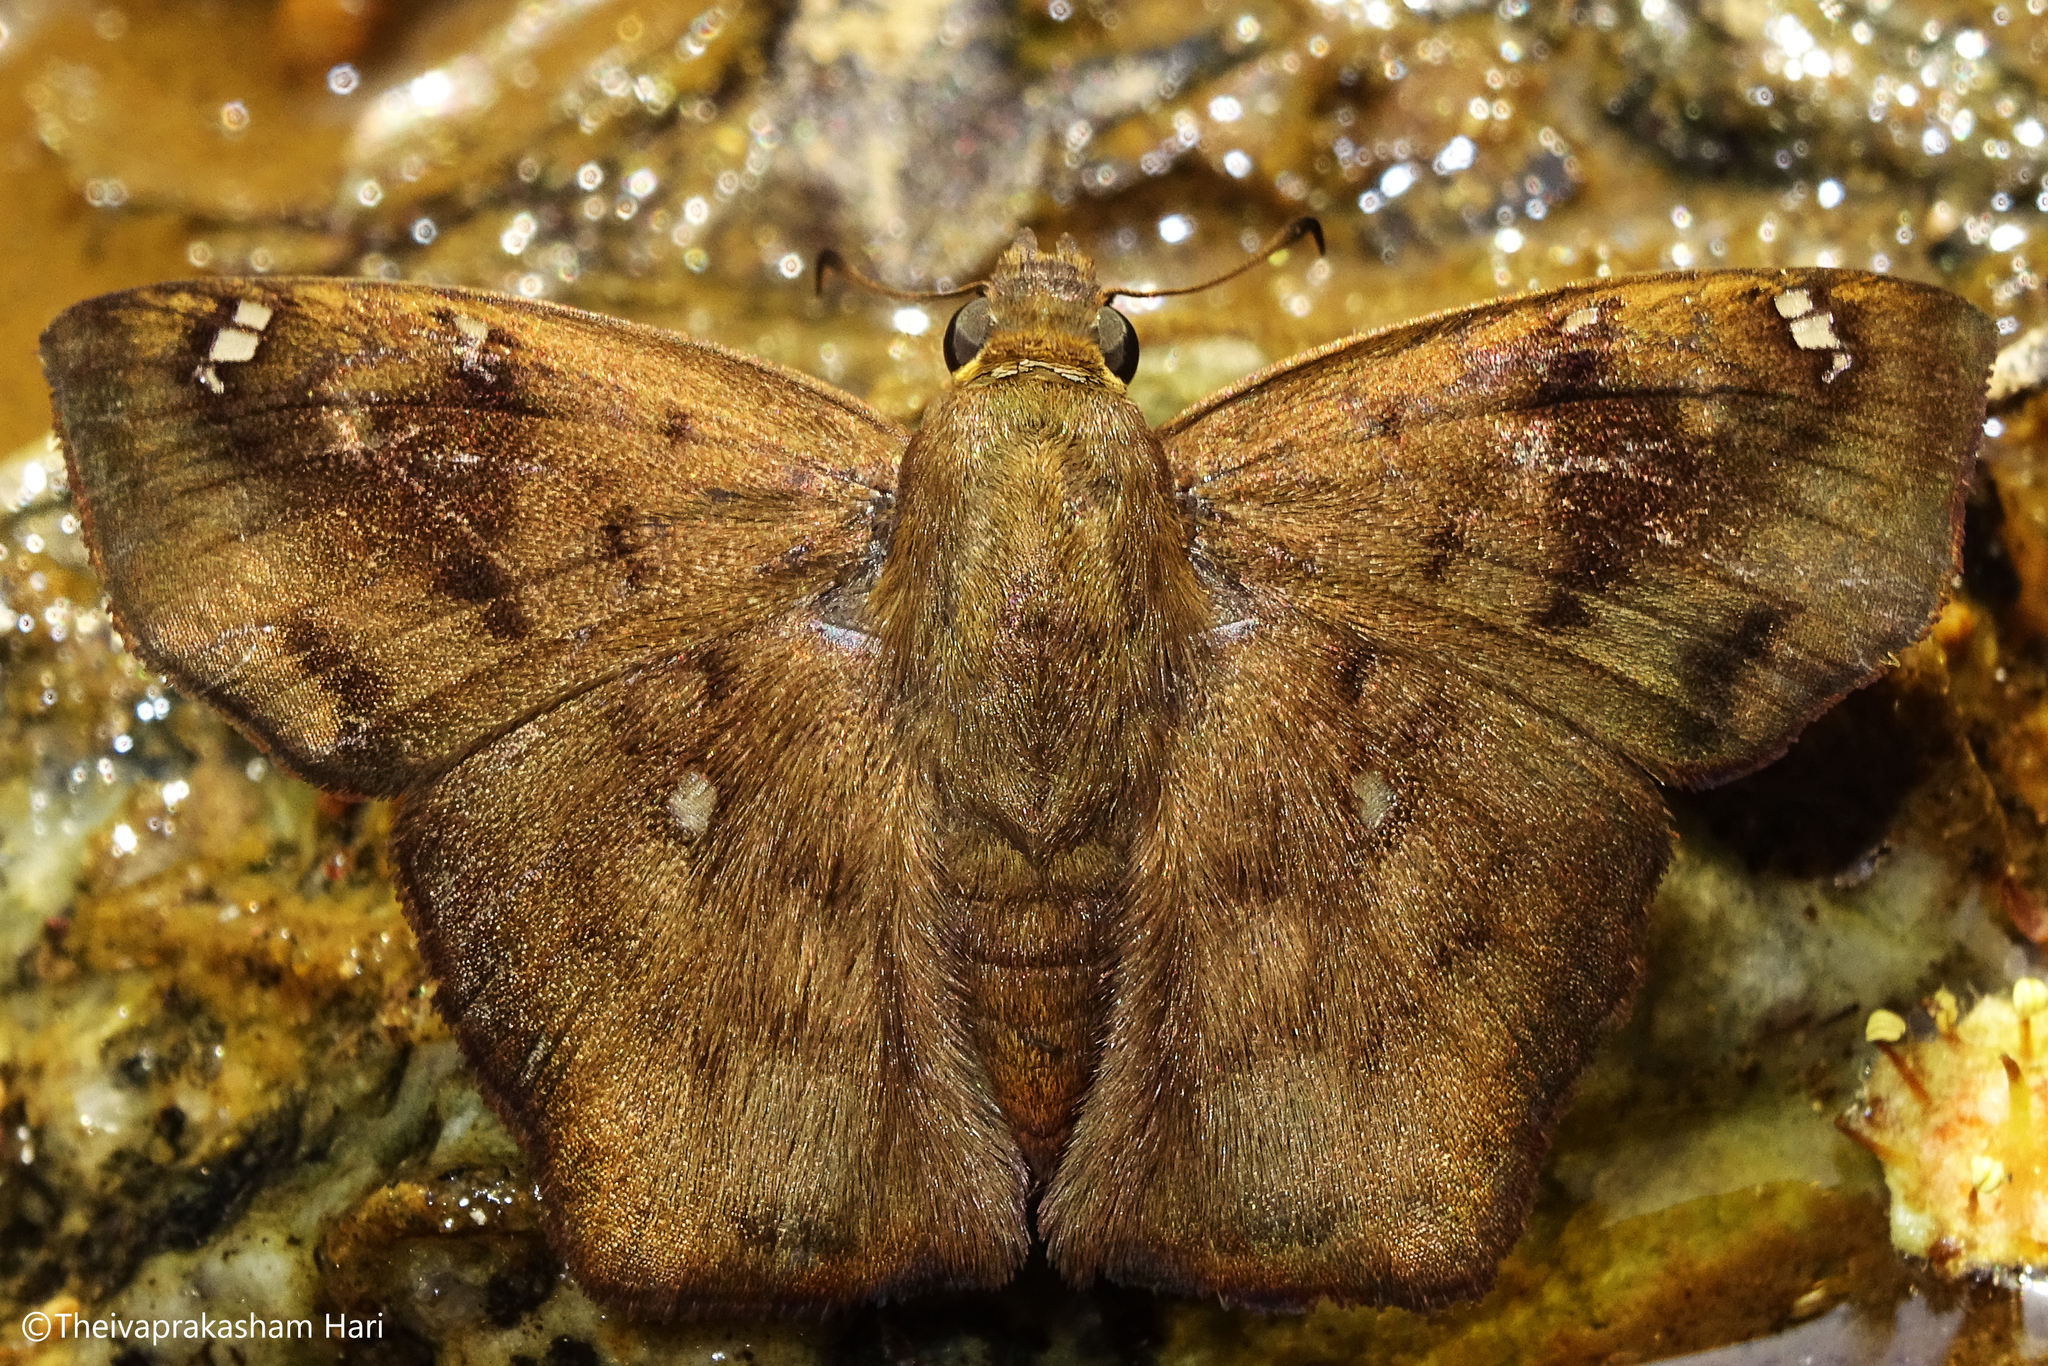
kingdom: Animalia
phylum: Arthropoda
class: Insecta
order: Lepidoptera
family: Hesperiidae
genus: Tapena
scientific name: Tapena thwaitesi
